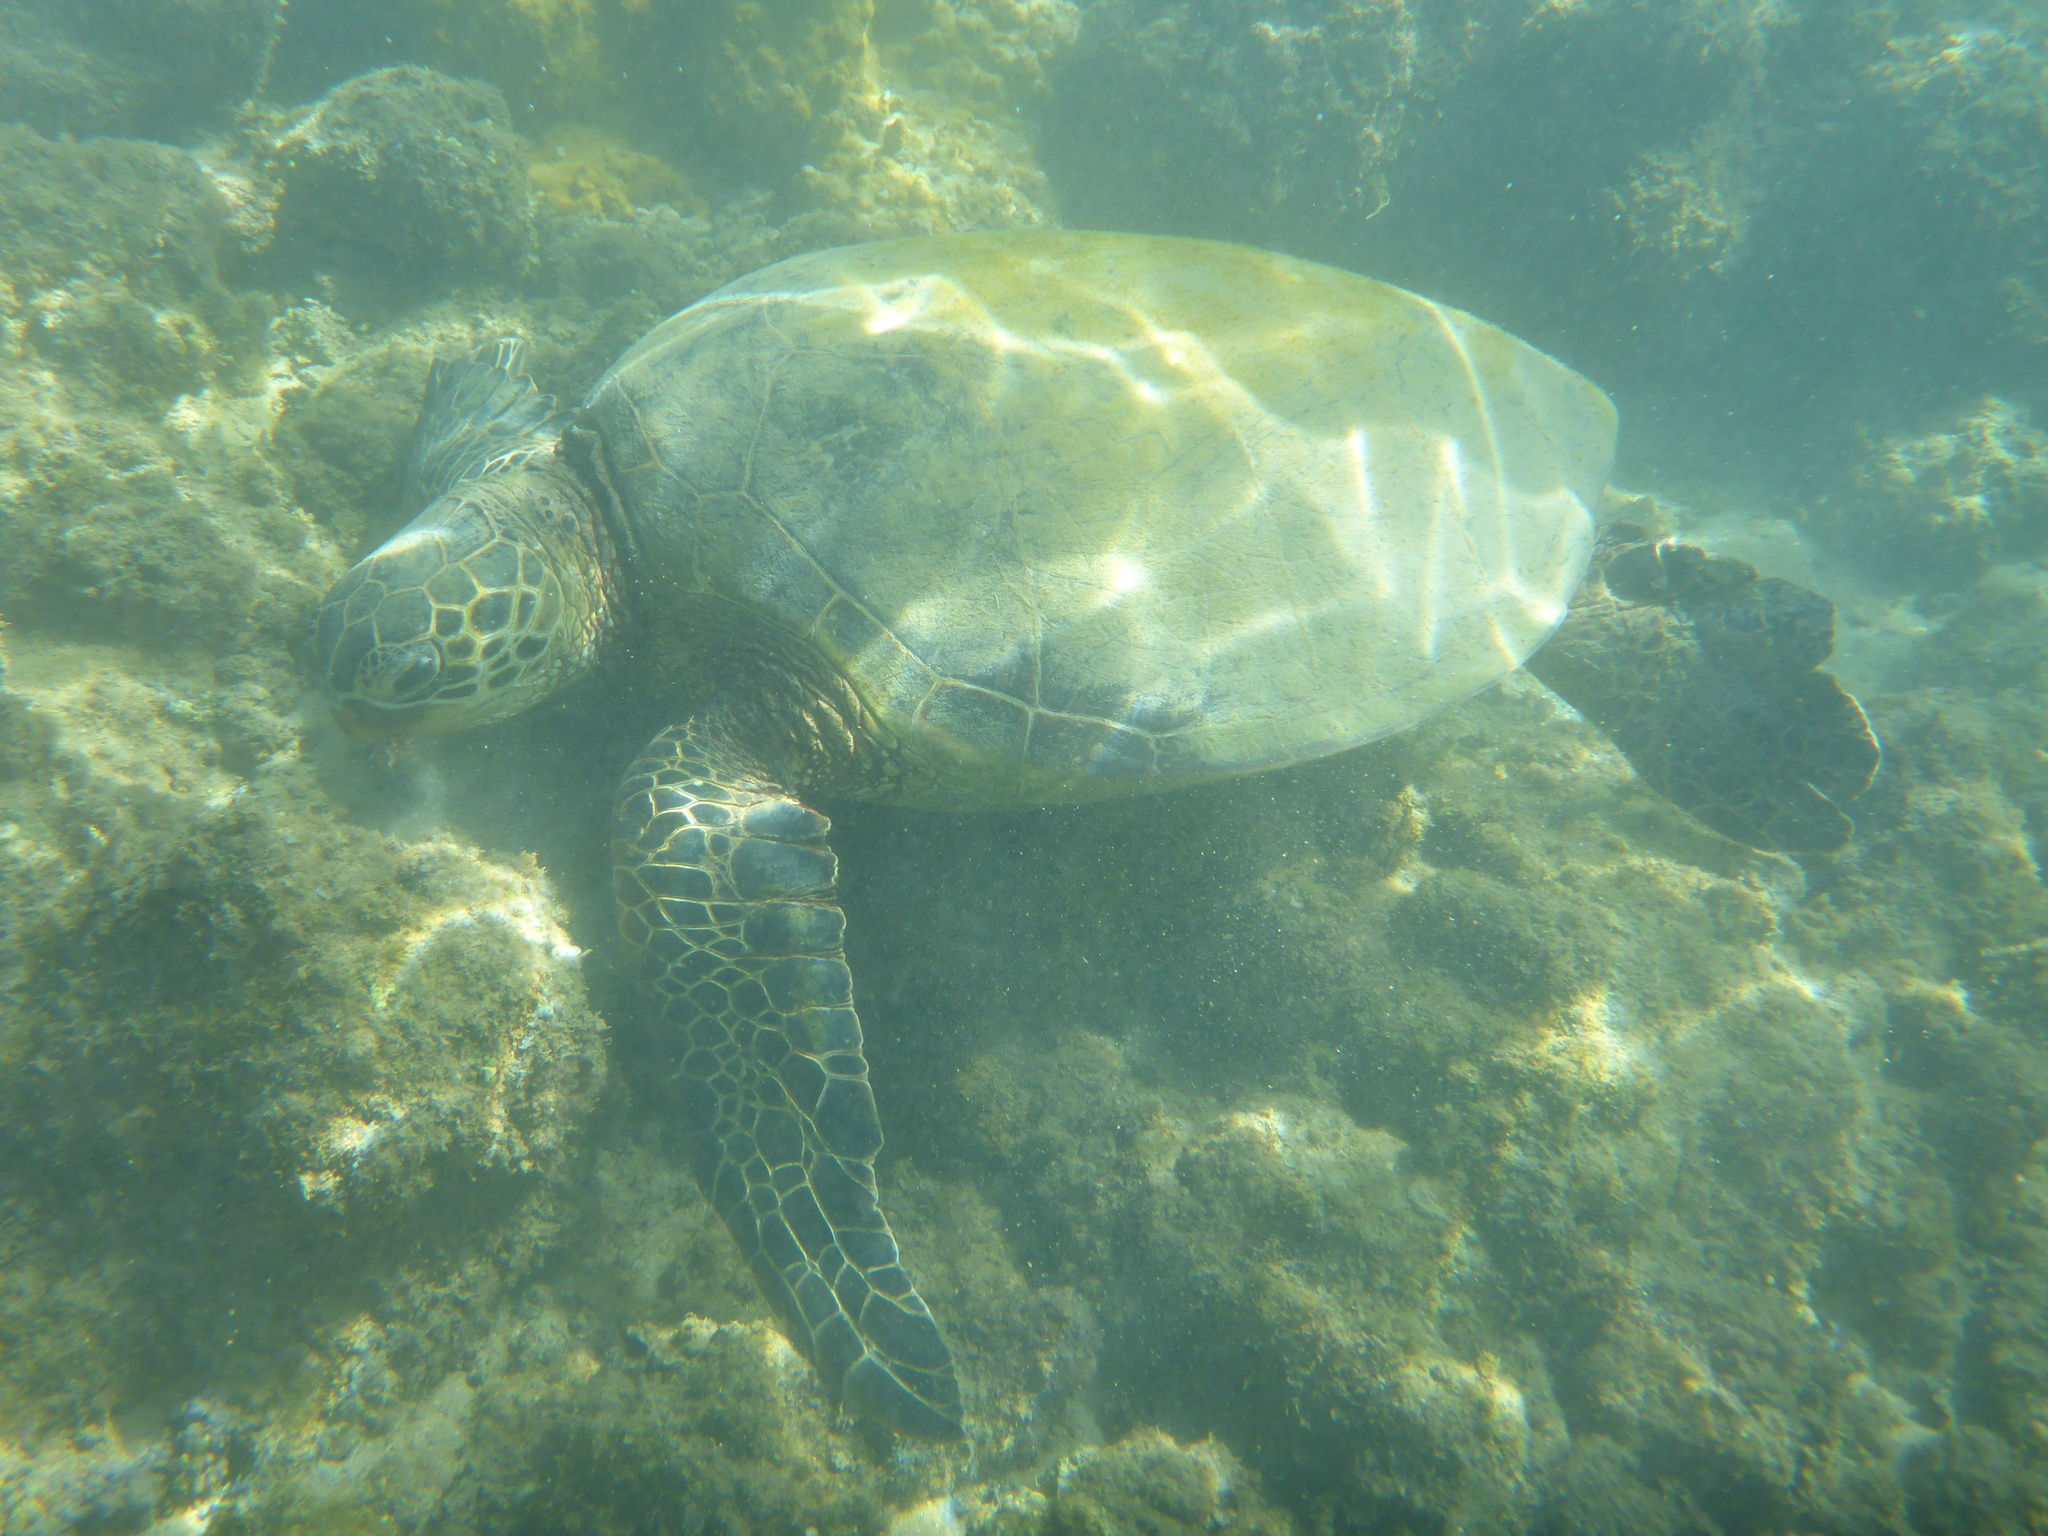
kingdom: Animalia
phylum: Chordata
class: Testudines
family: Cheloniidae
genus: Chelonia
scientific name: Chelonia mydas
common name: Green turtle
